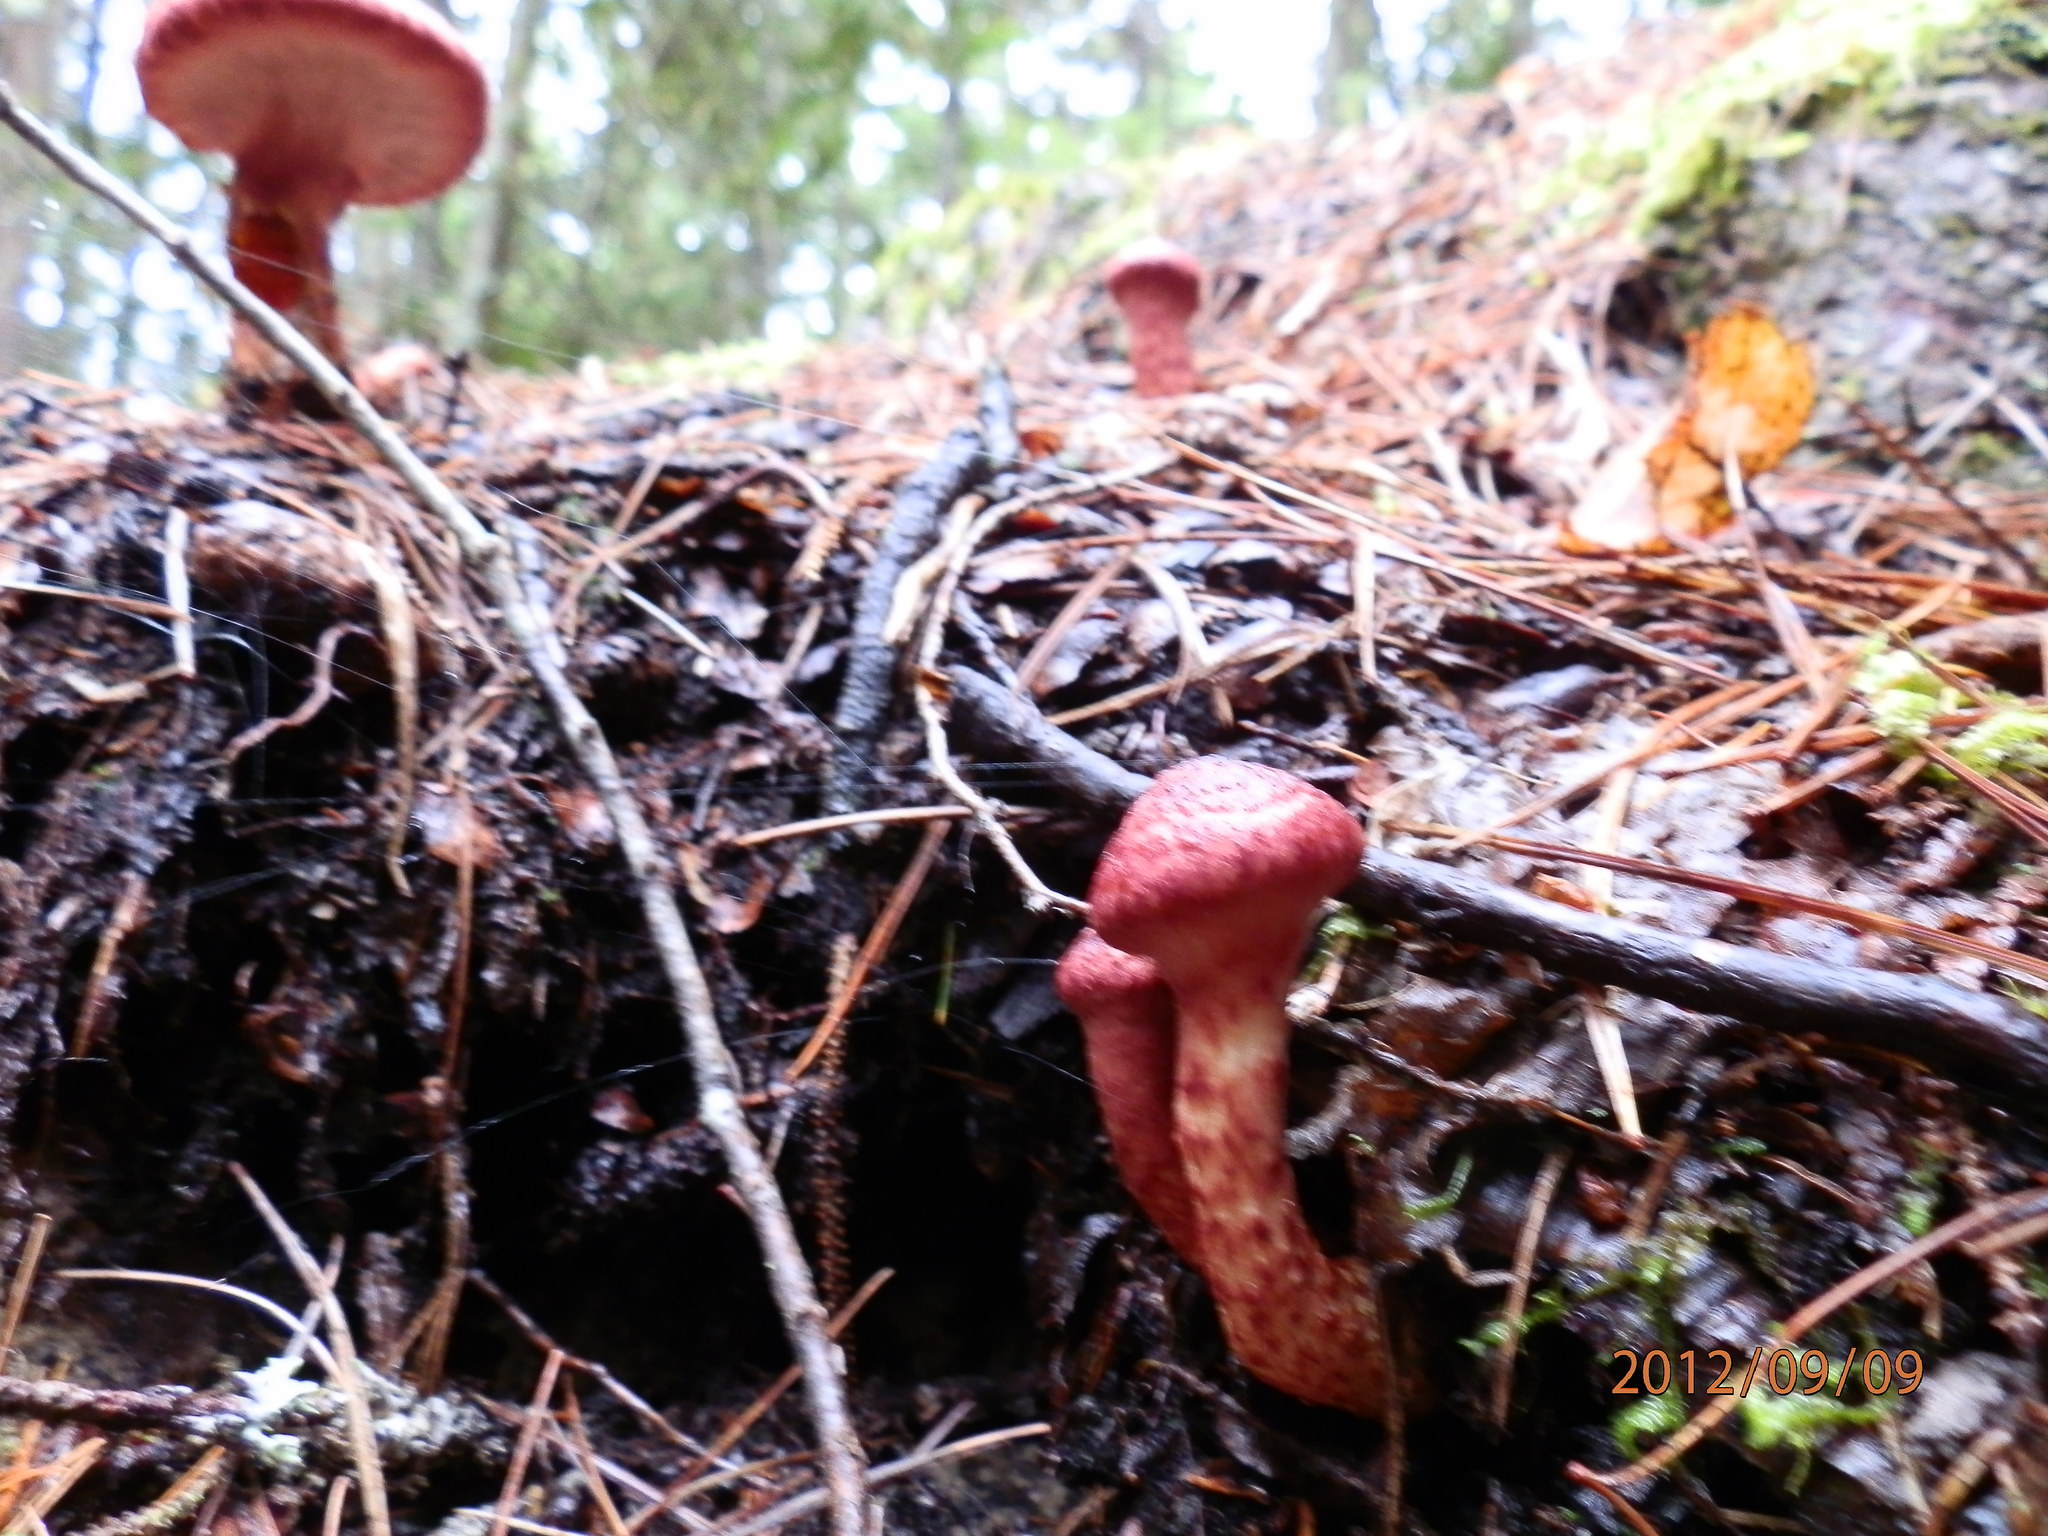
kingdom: Fungi
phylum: Basidiomycota
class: Agaricomycetes
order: Boletales
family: Suillaceae
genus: Suillus
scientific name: Suillus spraguei
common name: Painted suillus
